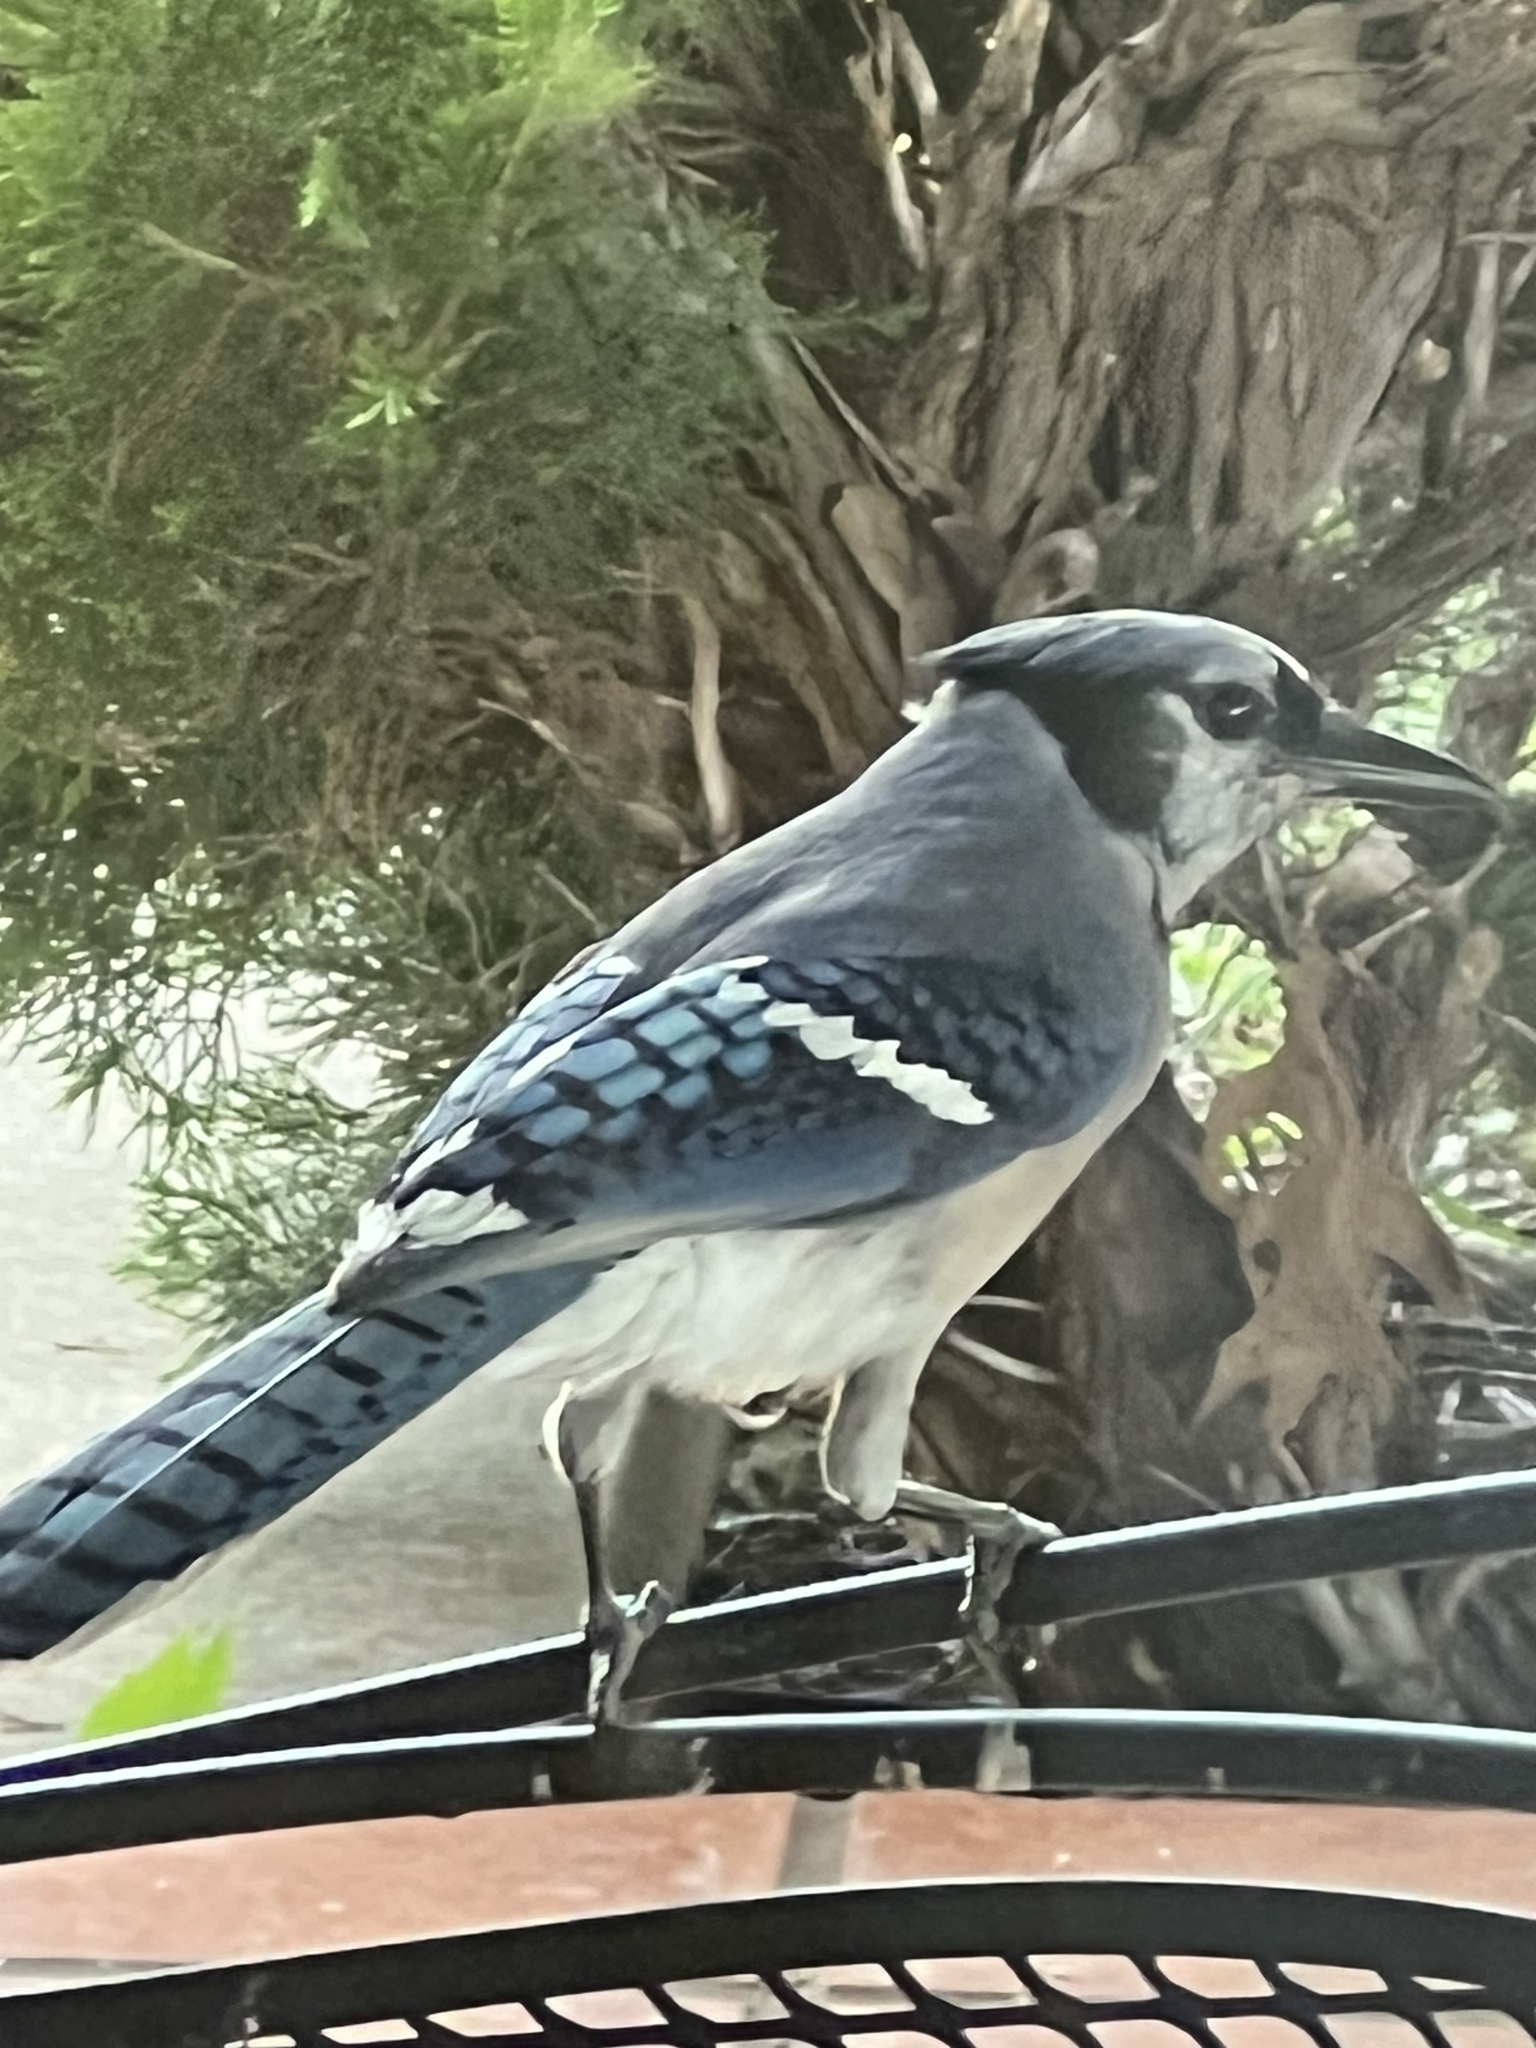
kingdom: Animalia
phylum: Chordata
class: Aves
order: Passeriformes
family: Corvidae
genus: Cyanocitta
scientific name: Cyanocitta cristata
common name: Blue jay
